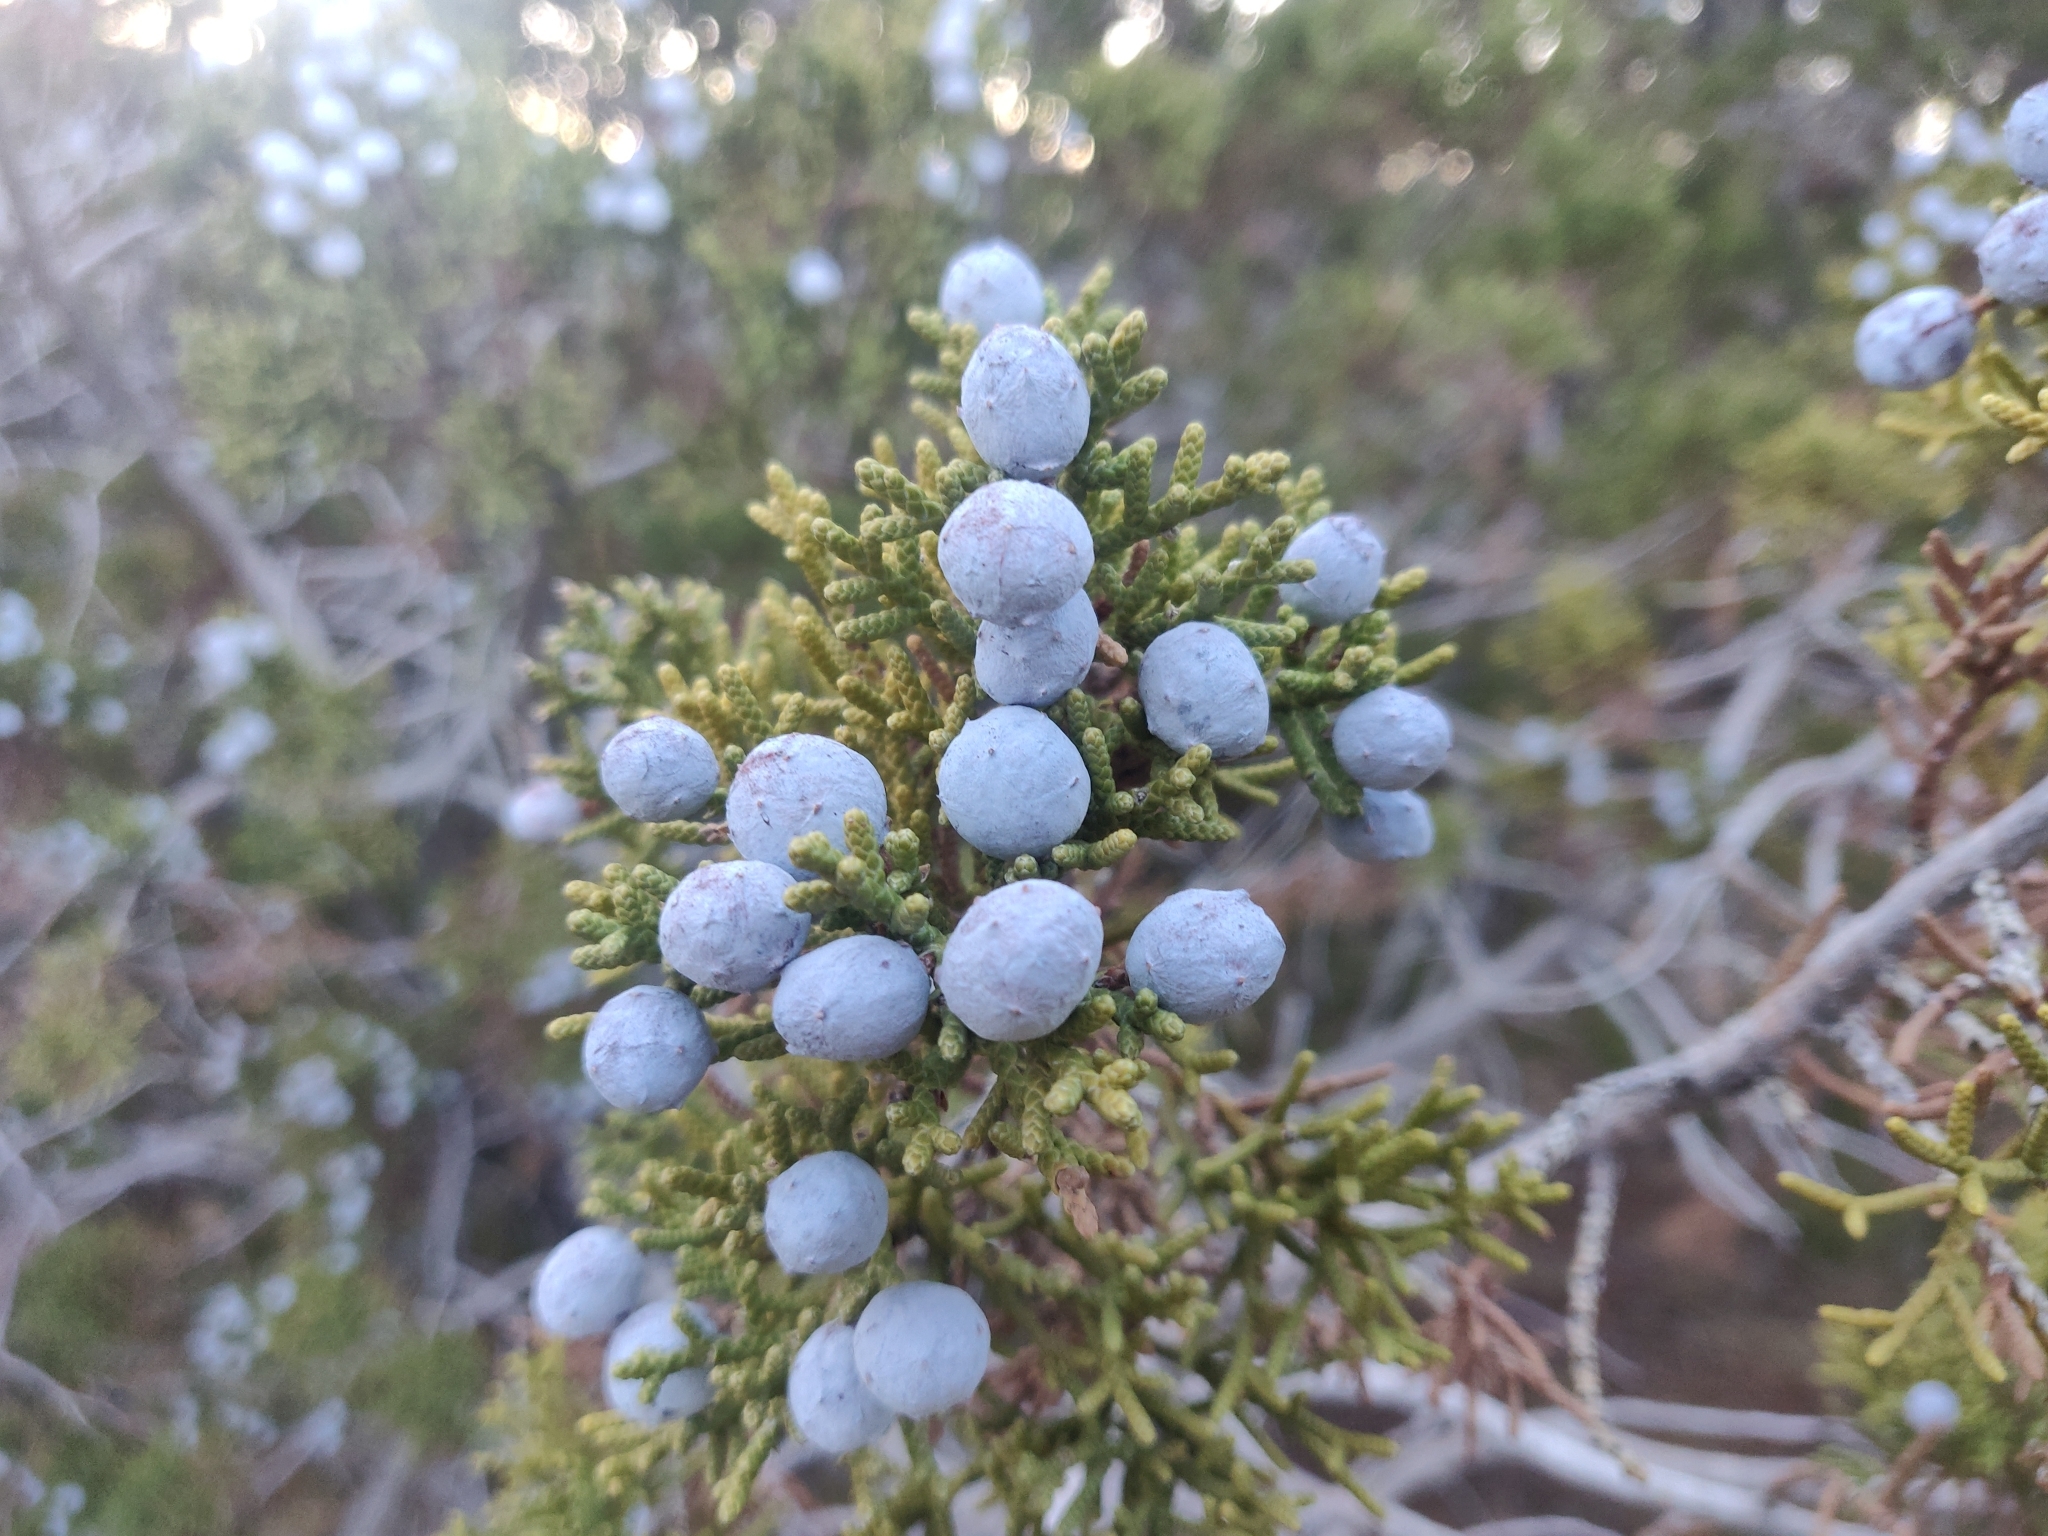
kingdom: Plantae
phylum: Tracheophyta
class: Pinopsida
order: Pinales
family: Cupressaceae
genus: Juniperus
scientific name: Juniperus californica
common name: California juniper
